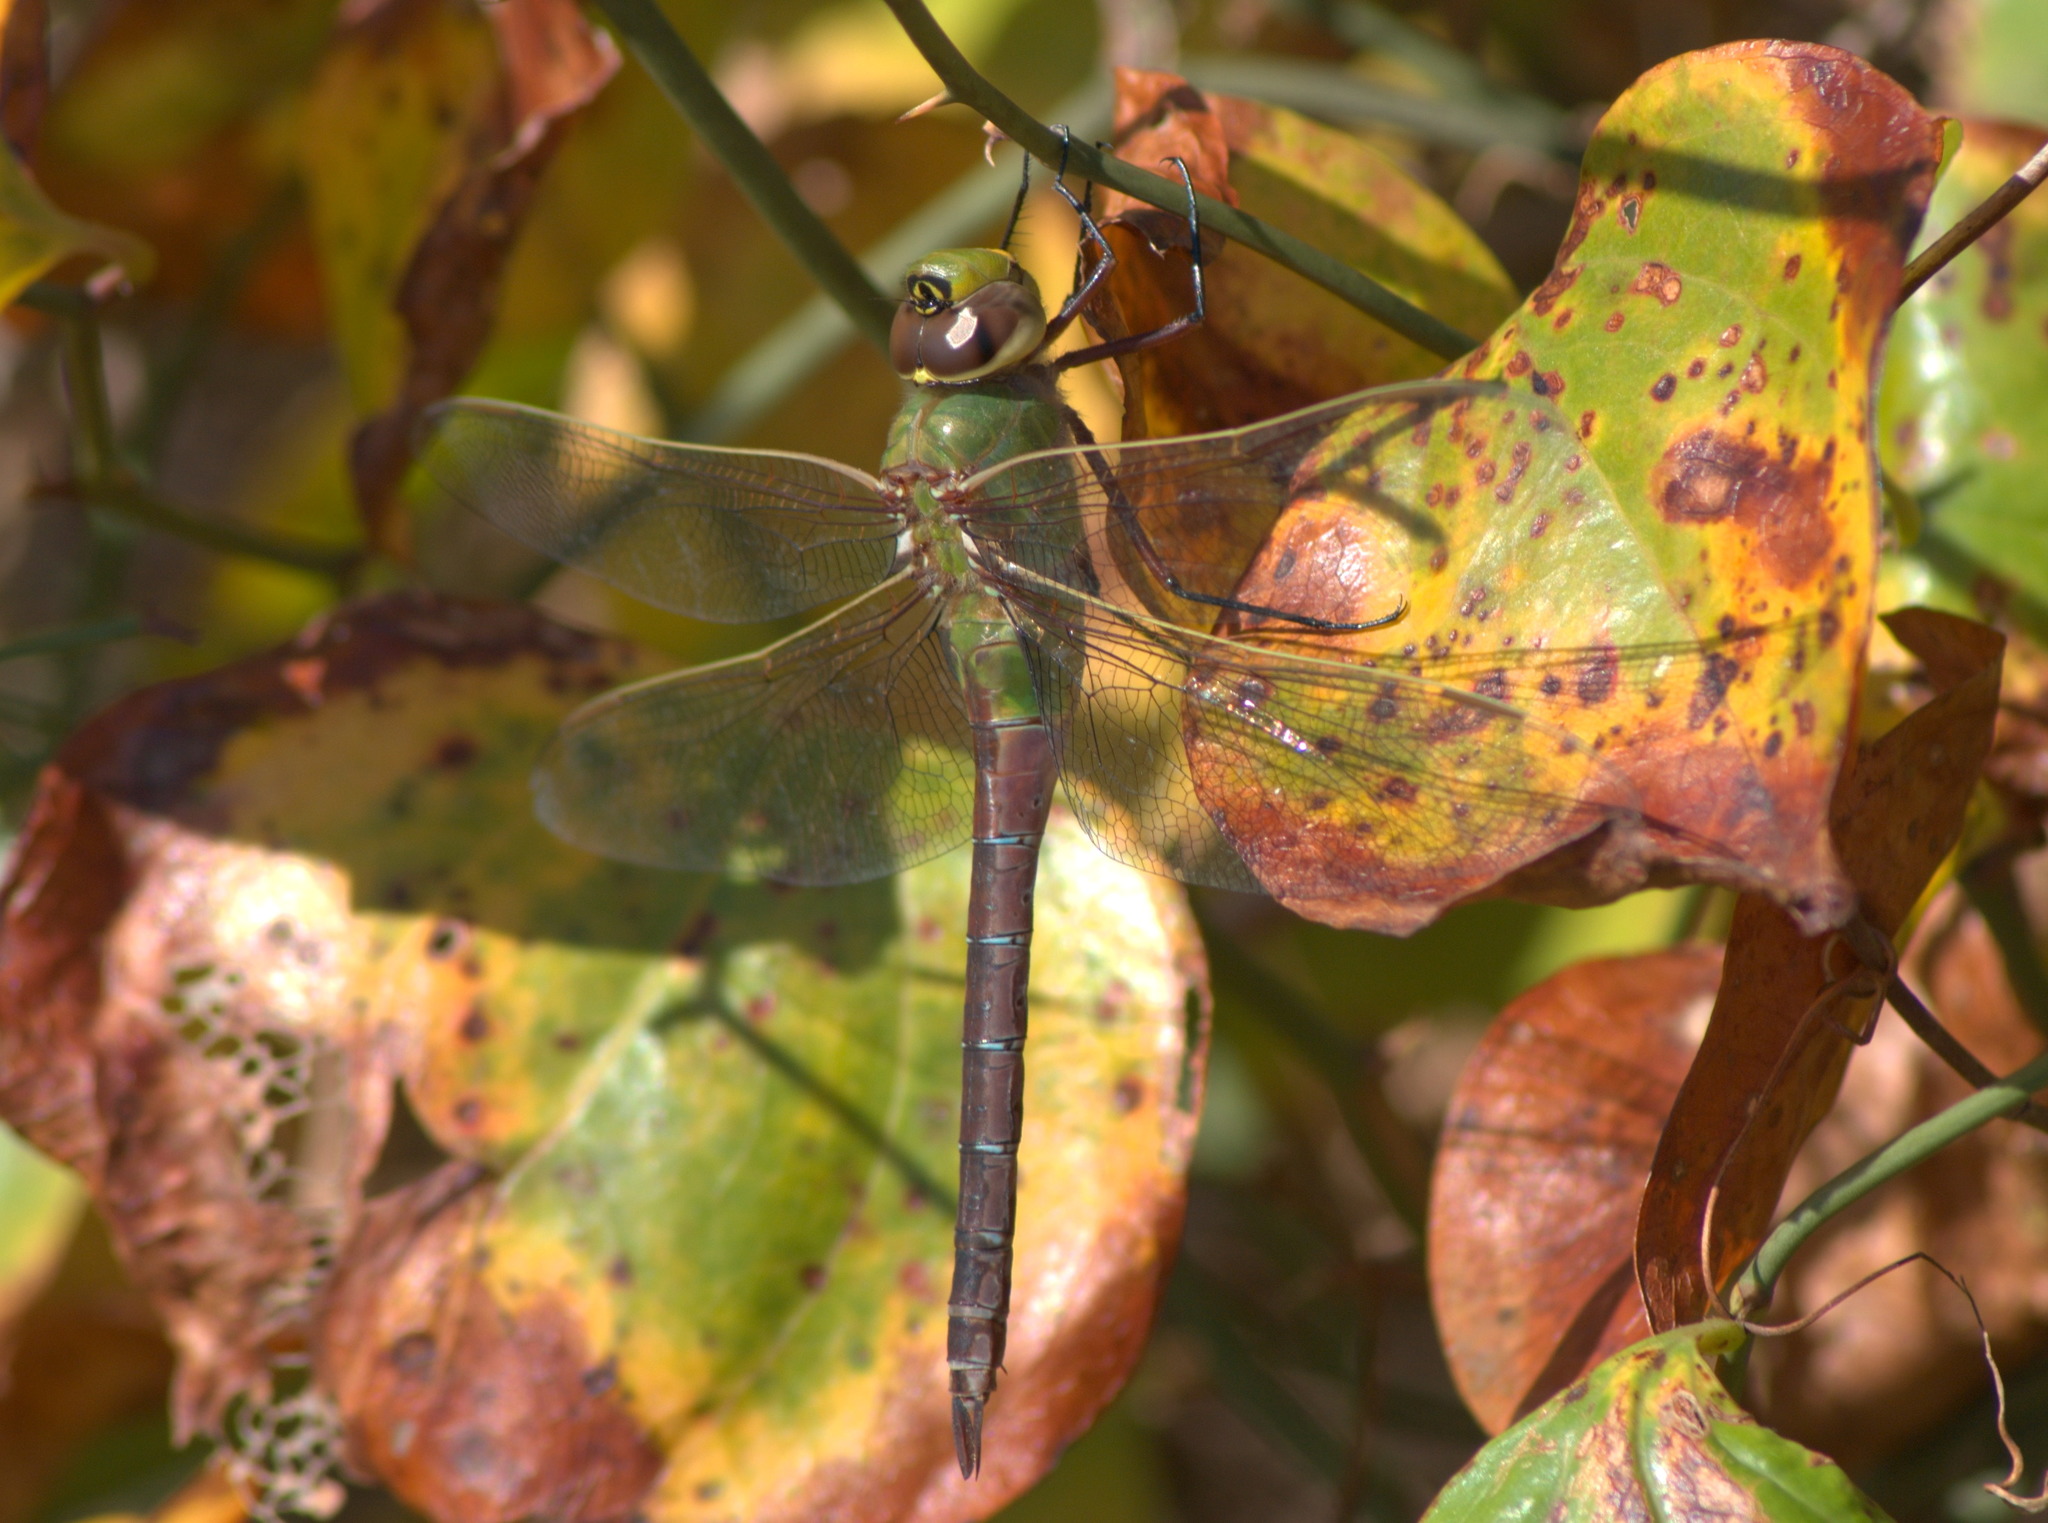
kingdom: Animalia
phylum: Arthropoda
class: Insecta
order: Odonata
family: Aeshnidae
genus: Anax
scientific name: Anax junius
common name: Common green darner
